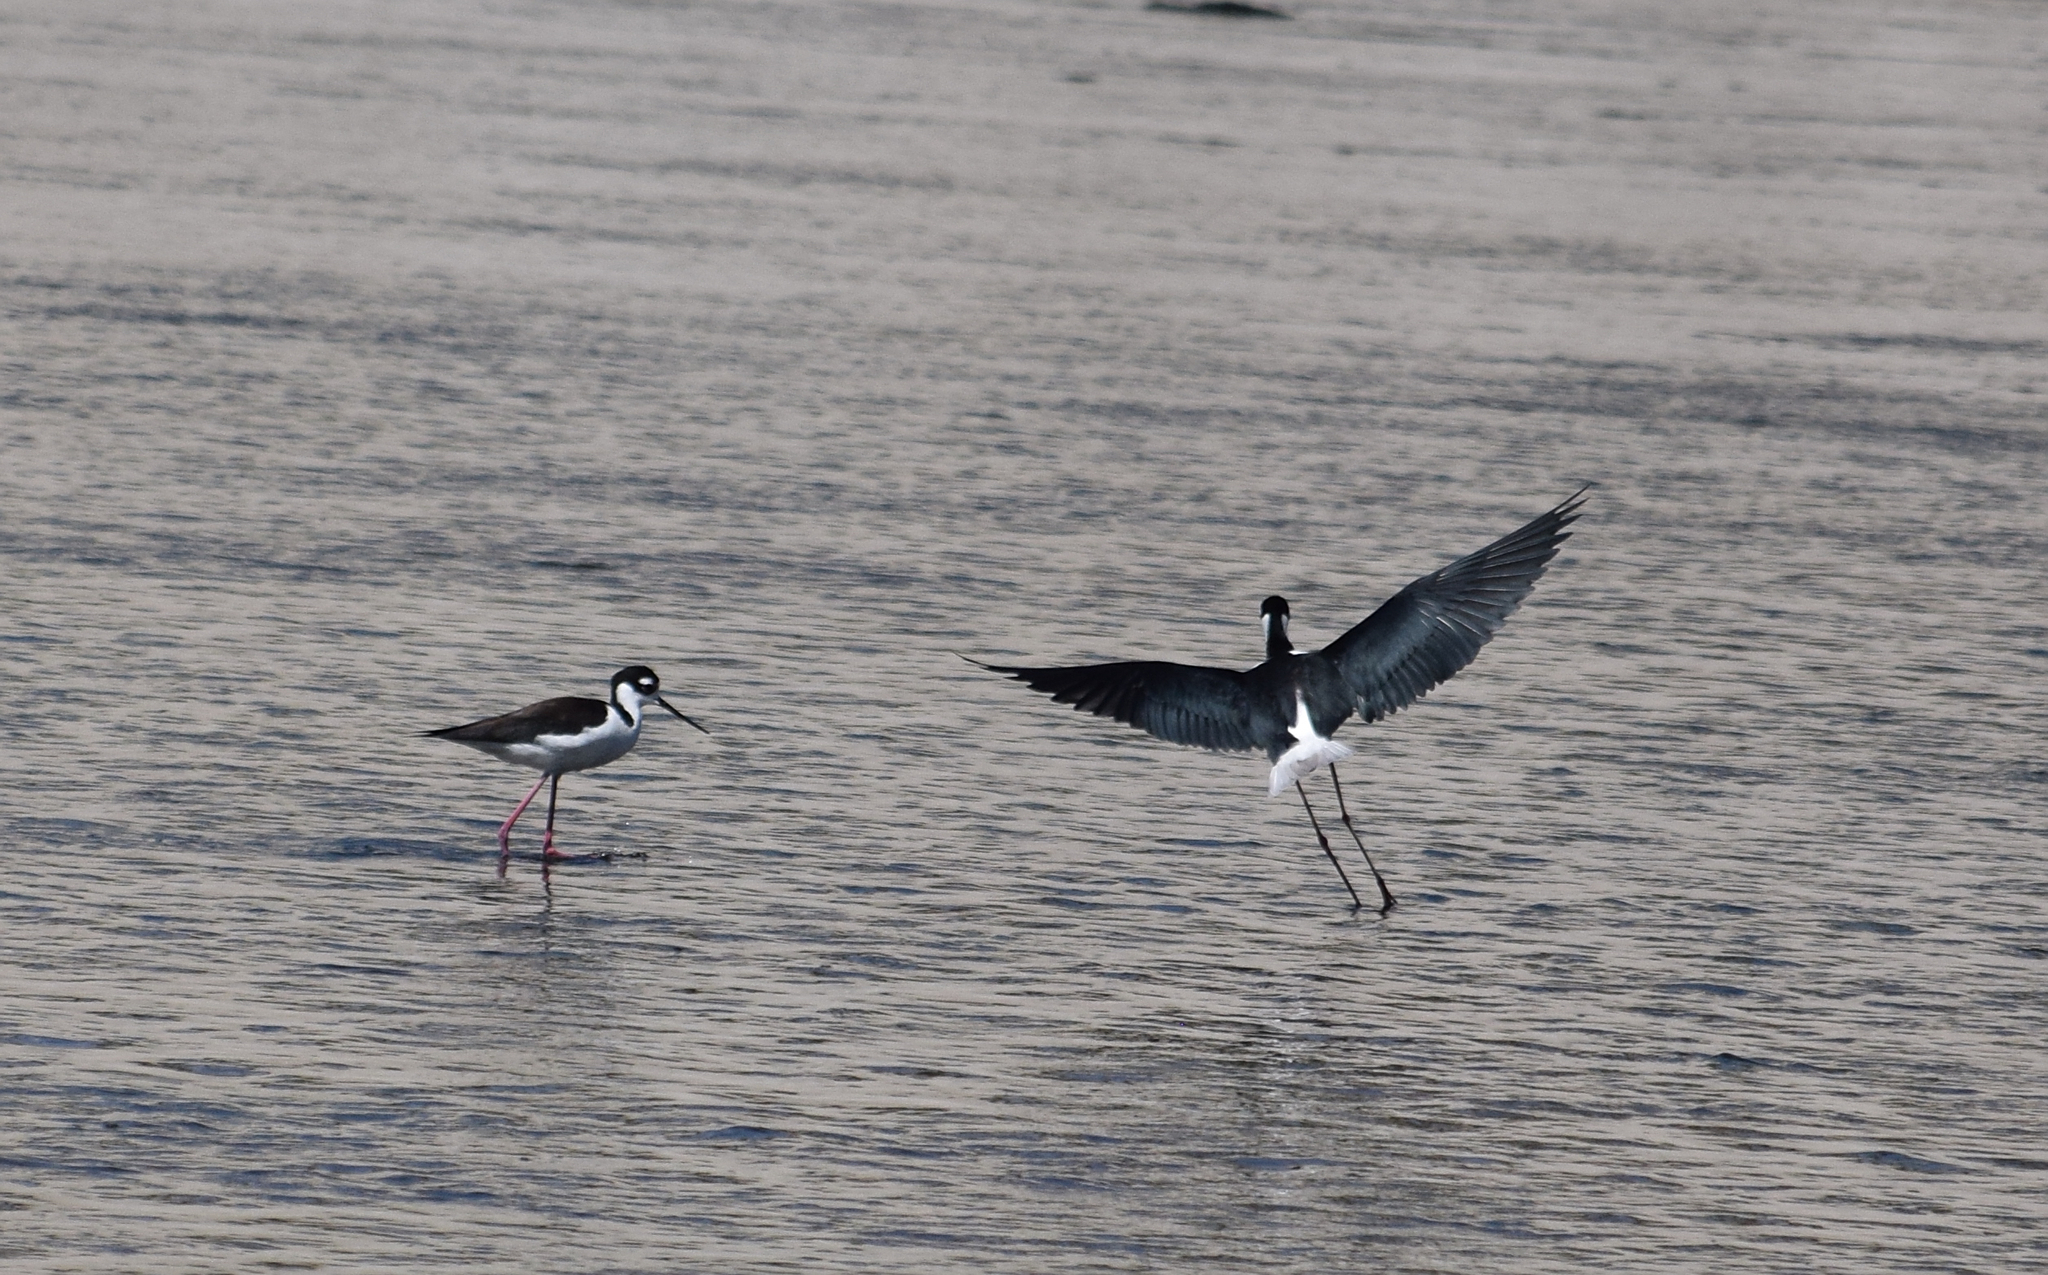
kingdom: Animalia
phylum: Chordata
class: Aves
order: Charadriiformes
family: Recurvirostridae
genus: Himantopus
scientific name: Himantopus mexicanus
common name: Black-necked stilt
